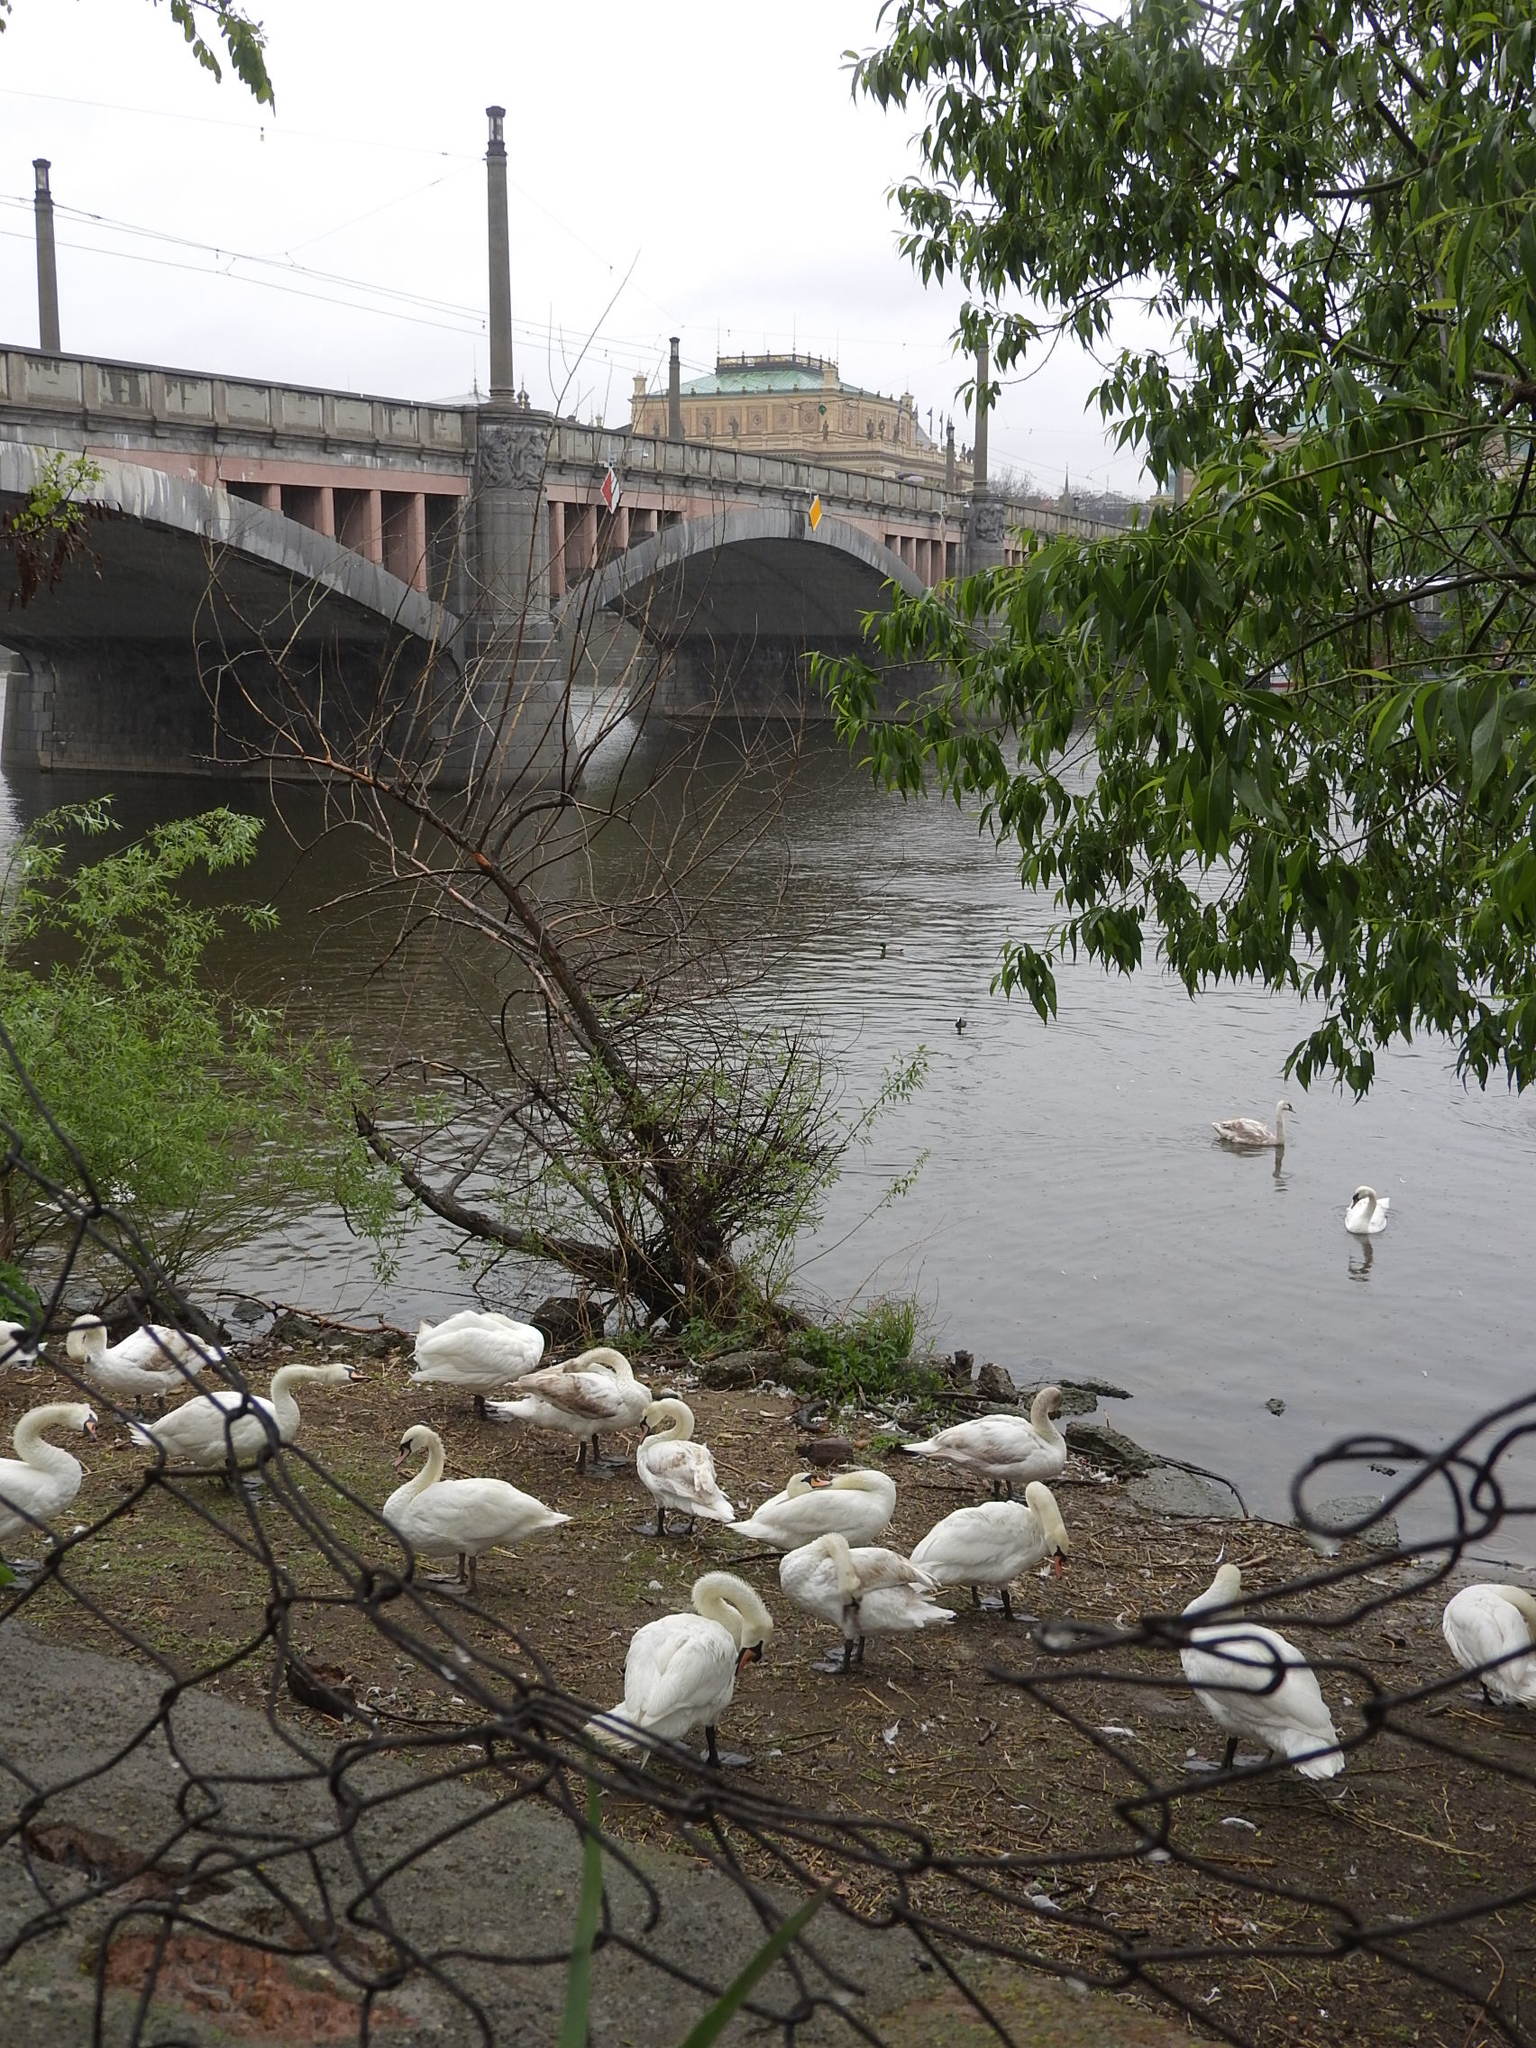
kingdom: Animalia
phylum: Chordata
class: Aves
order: Anseriformes
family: Anatidae
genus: Cygnus
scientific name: Cygnus olor
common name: Mute swan
